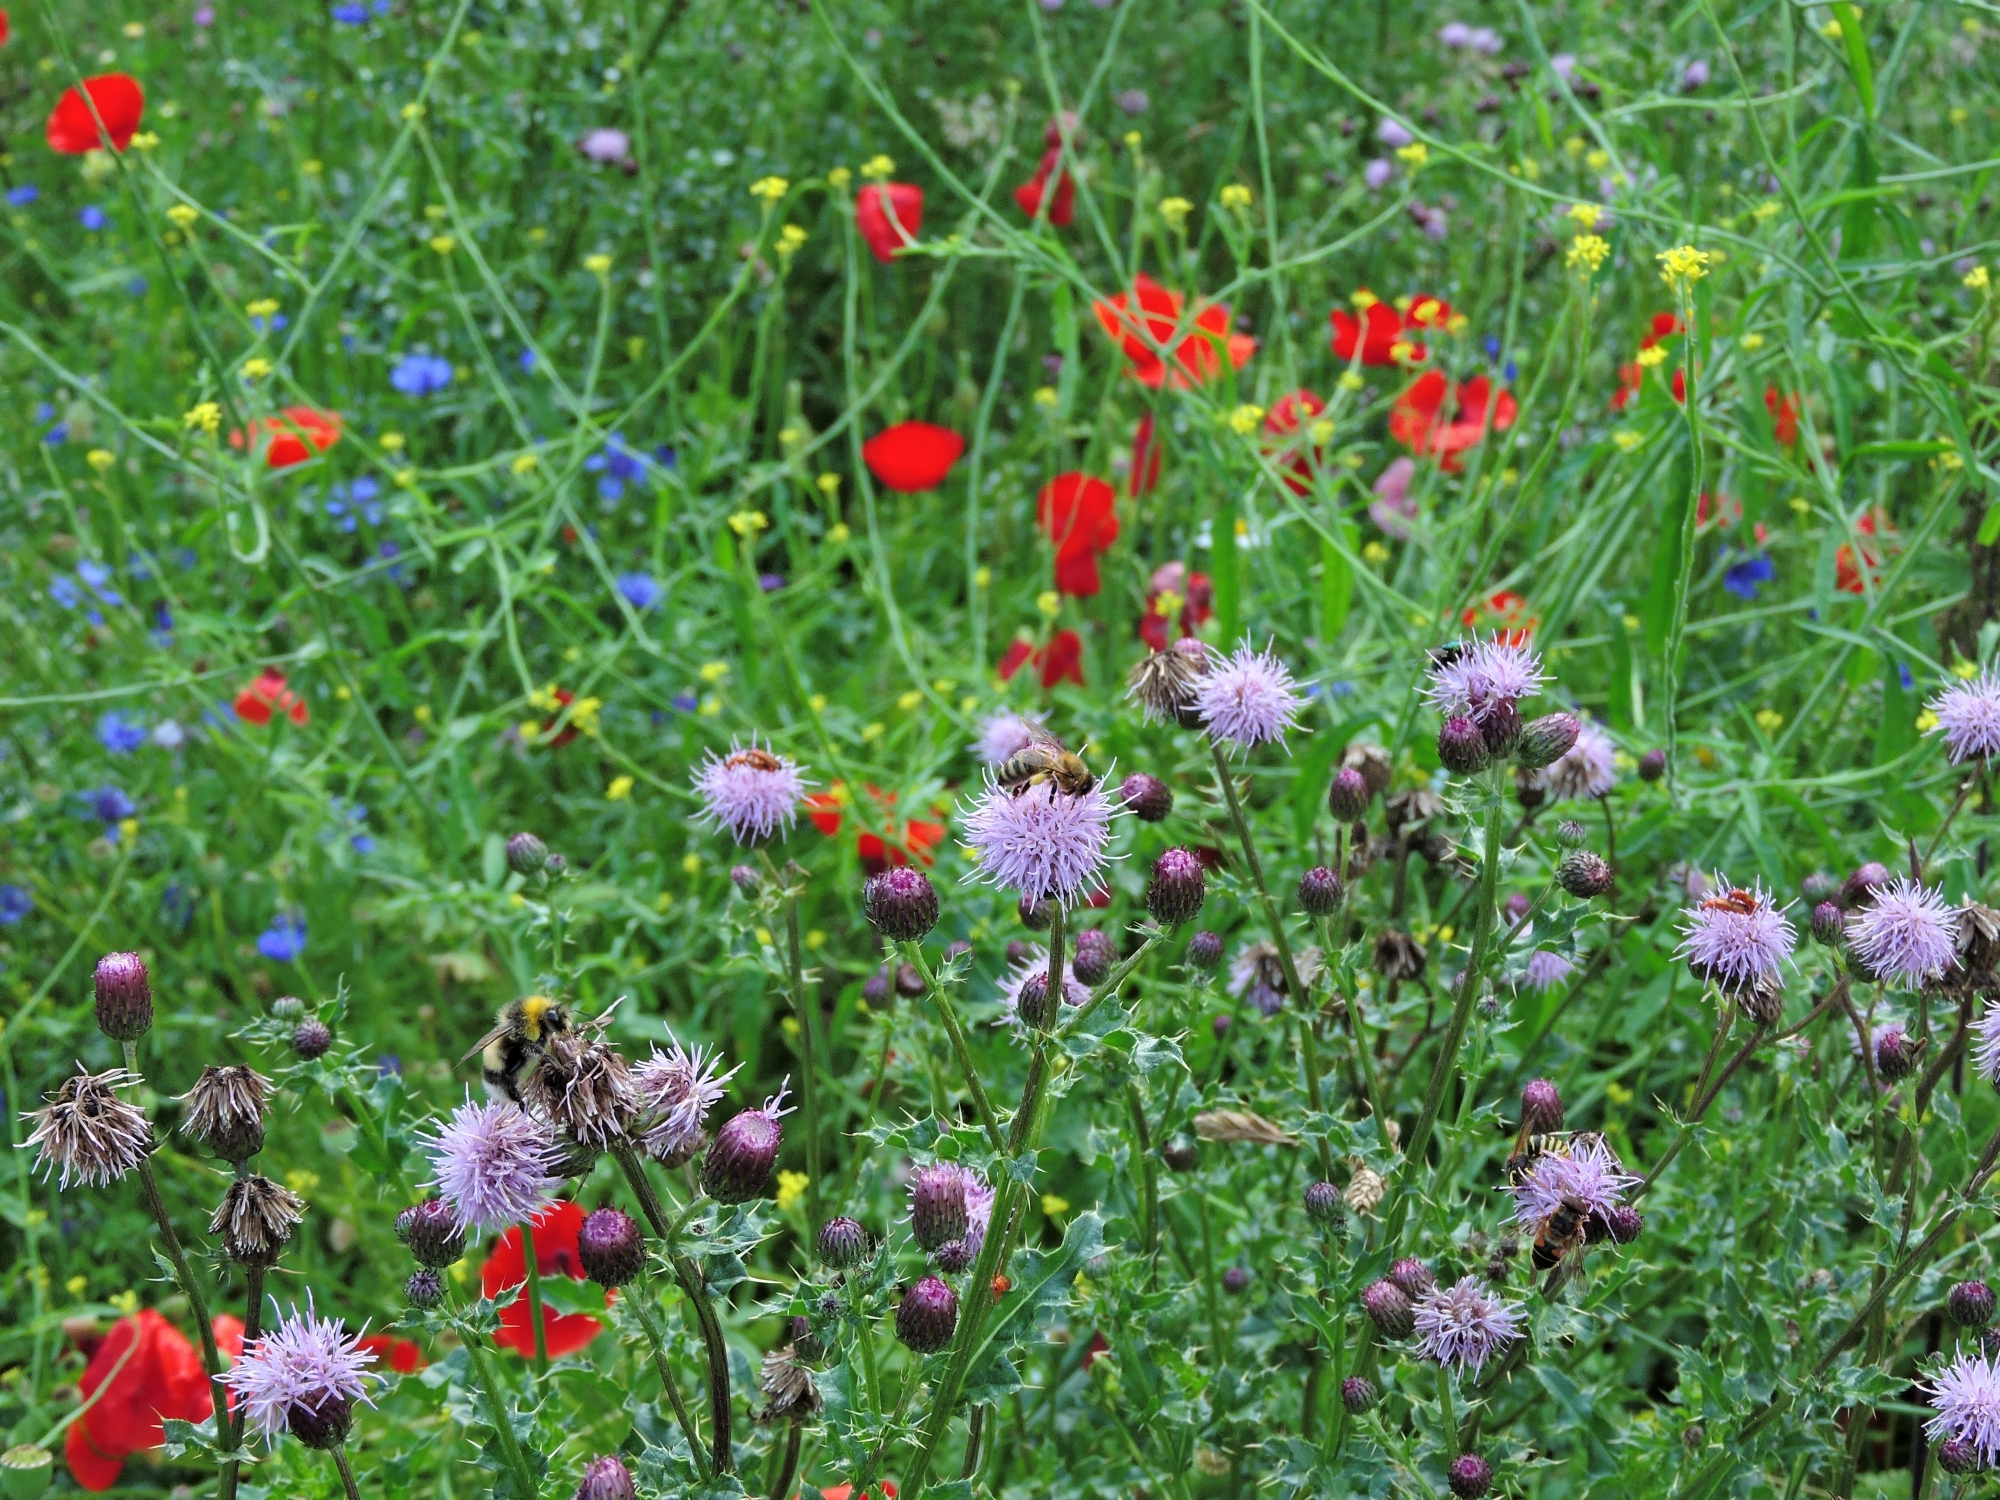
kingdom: Plantae
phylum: Tracheophyta
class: Magnoliopsida
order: Asterales
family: Asteraceae
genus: Cirsium
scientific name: Cirsium arvense
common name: Creeping thistle
